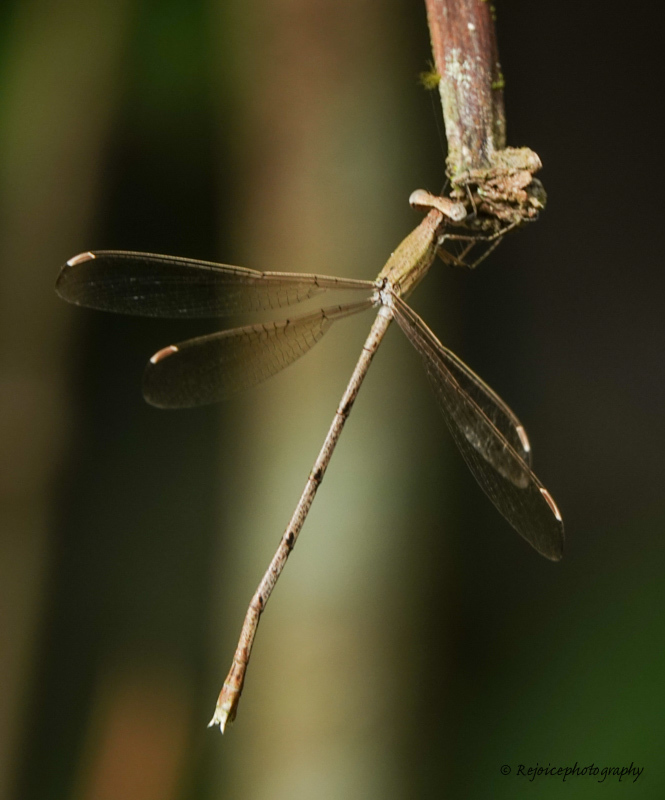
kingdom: Animalia
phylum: Arthropoda
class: Insecta
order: Odonata
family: Lestidae
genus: Lestes
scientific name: Lestes nodalis
